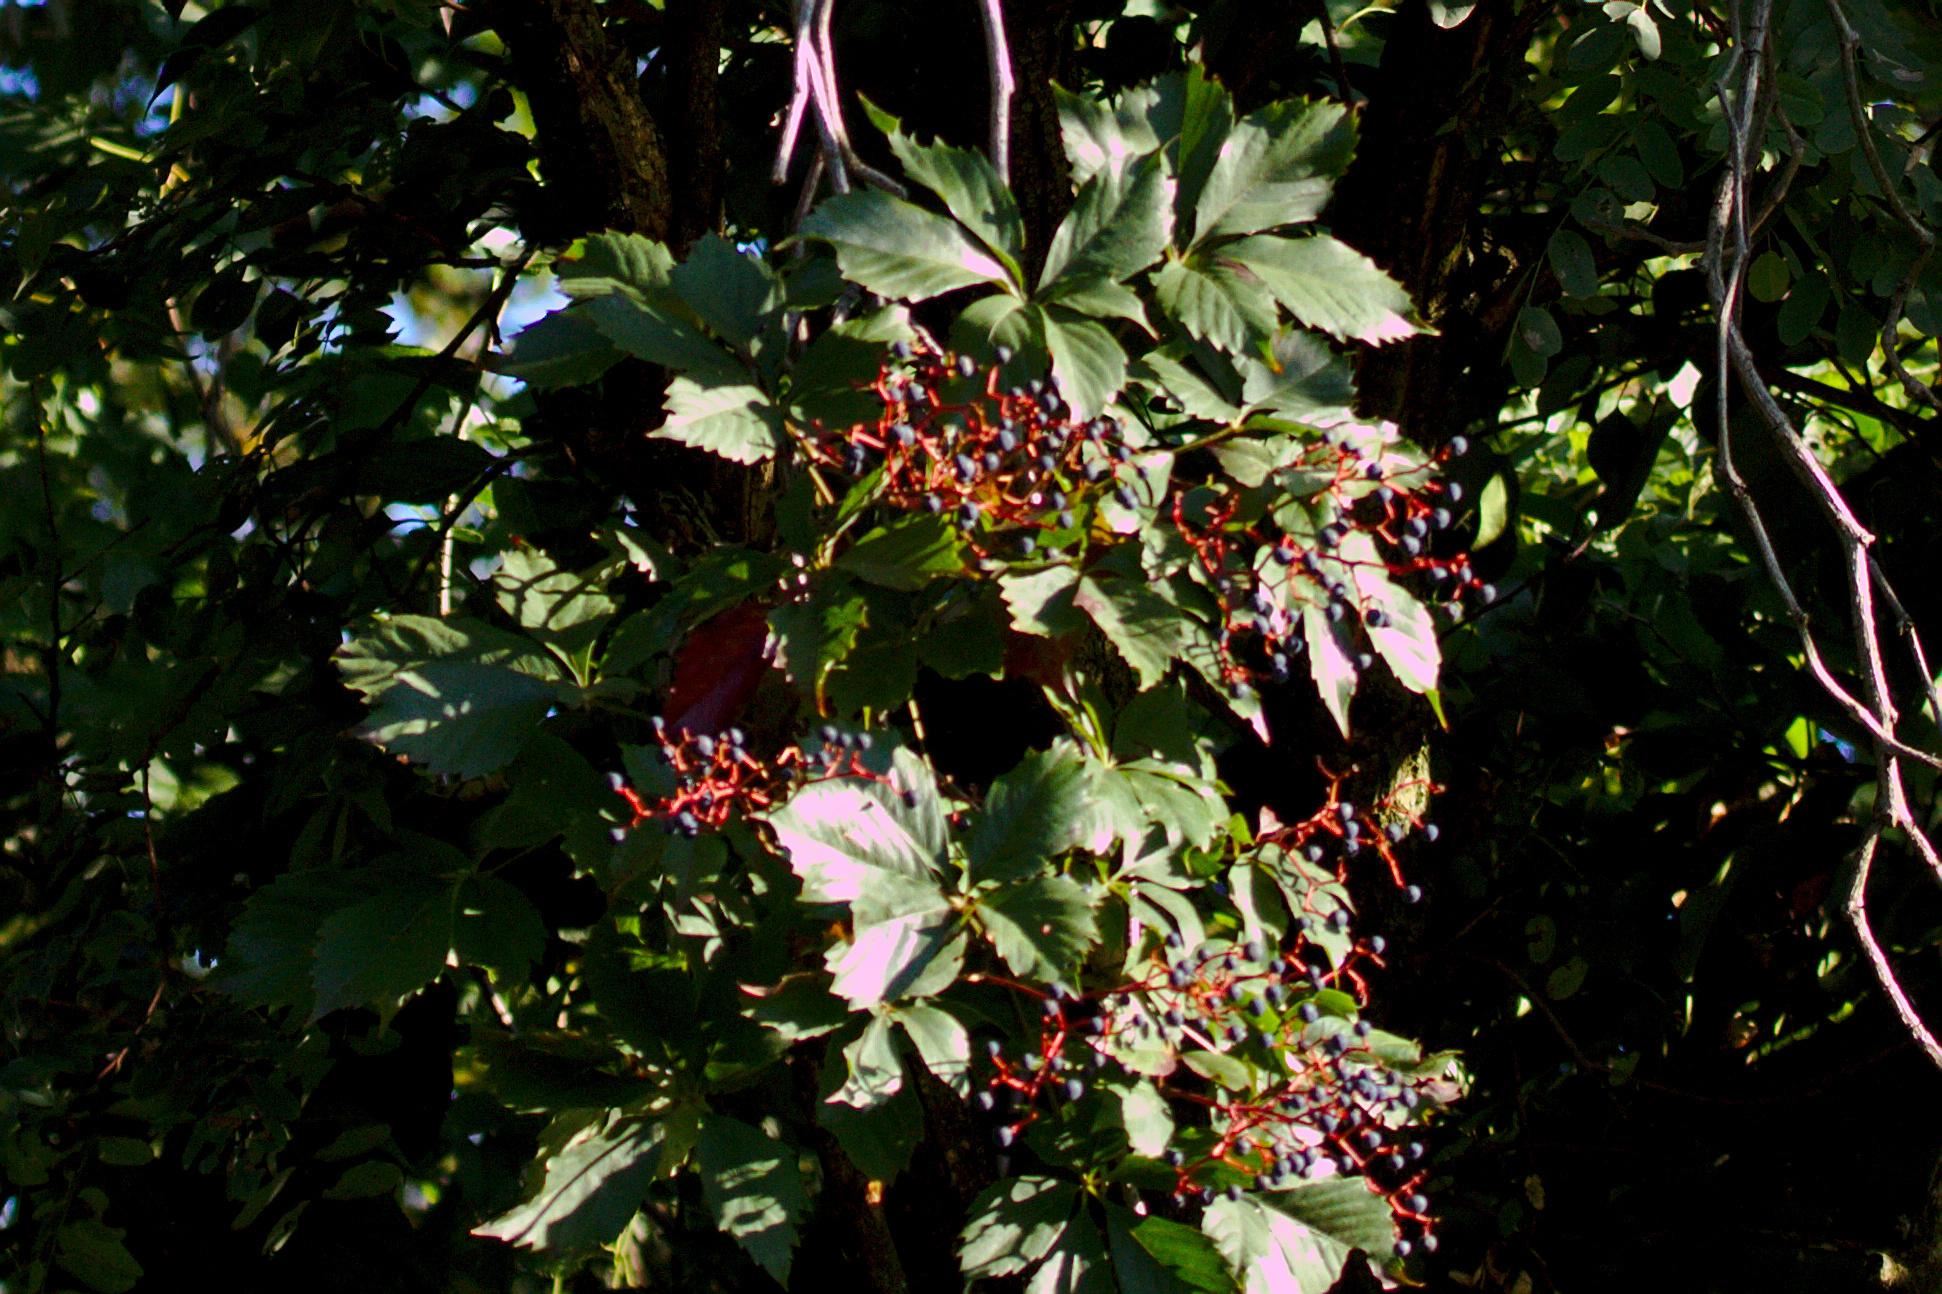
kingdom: Plantae
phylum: Tracheophyta
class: Magnoliopsida
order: Vitales
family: Vitaceae
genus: Parthenocissus
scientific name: Parthenocissus quinquefolia
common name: Virginia-creeper
